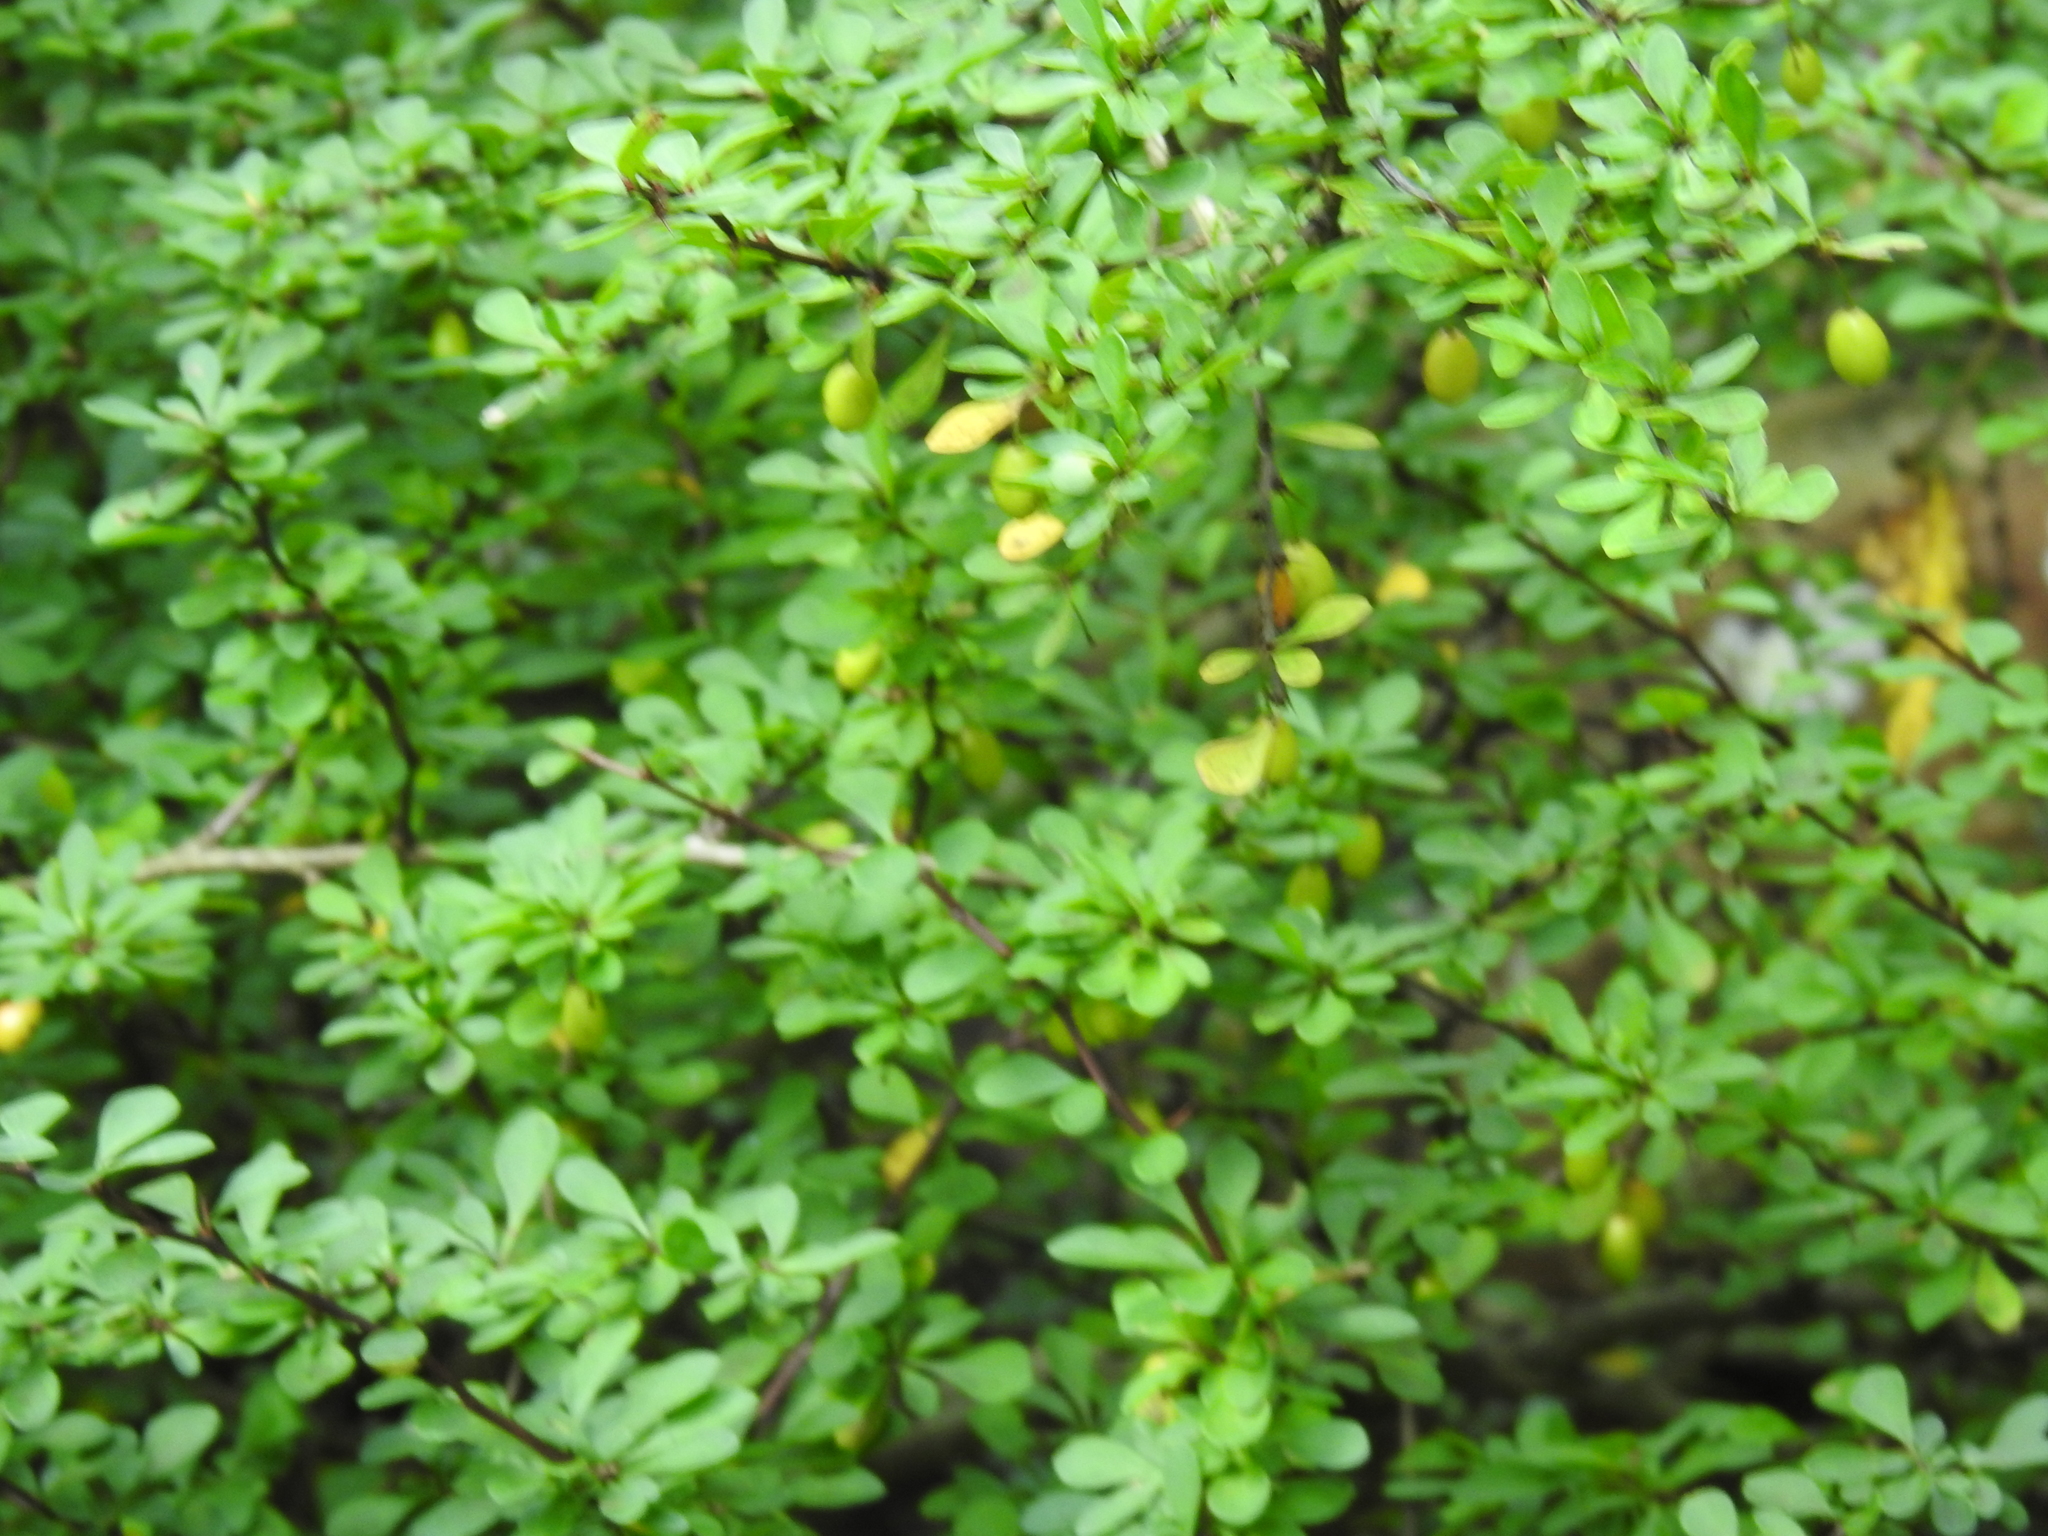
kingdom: Plantae
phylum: Tracheophyta
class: Magnoliopsida
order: Ranunculales
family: Berberidaceae
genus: Berberis
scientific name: Berberis thunbergii
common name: Japanese barberry
